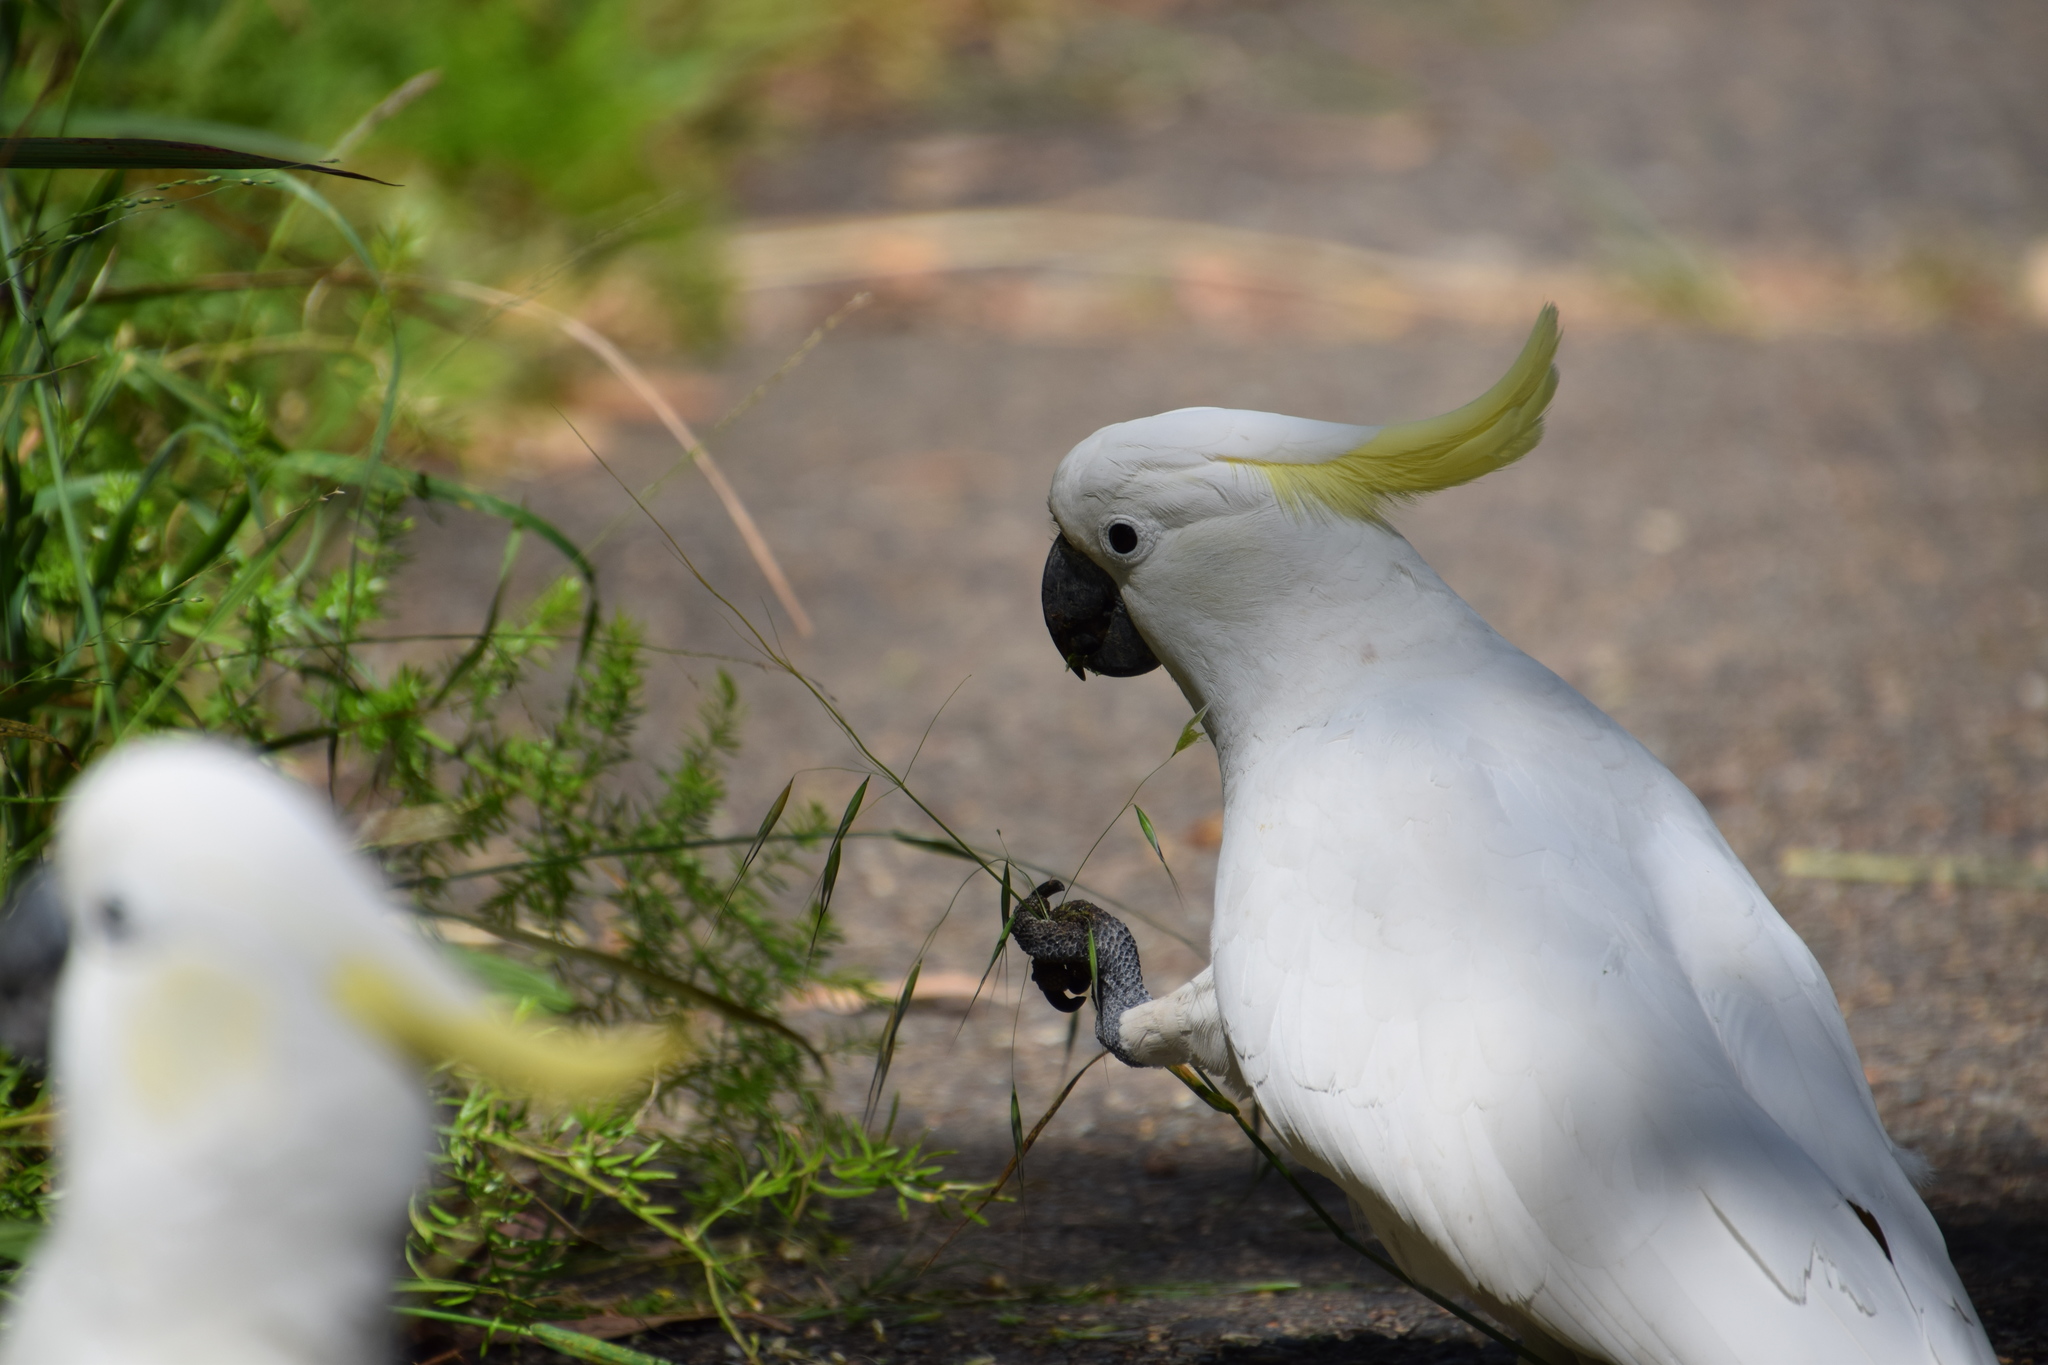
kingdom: Animalia
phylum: Chordata
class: Aves
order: Psittaciformes
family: Psittacidae
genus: Cacatua
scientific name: Cacatua galerita
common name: Sulphur-crested cockatoo
